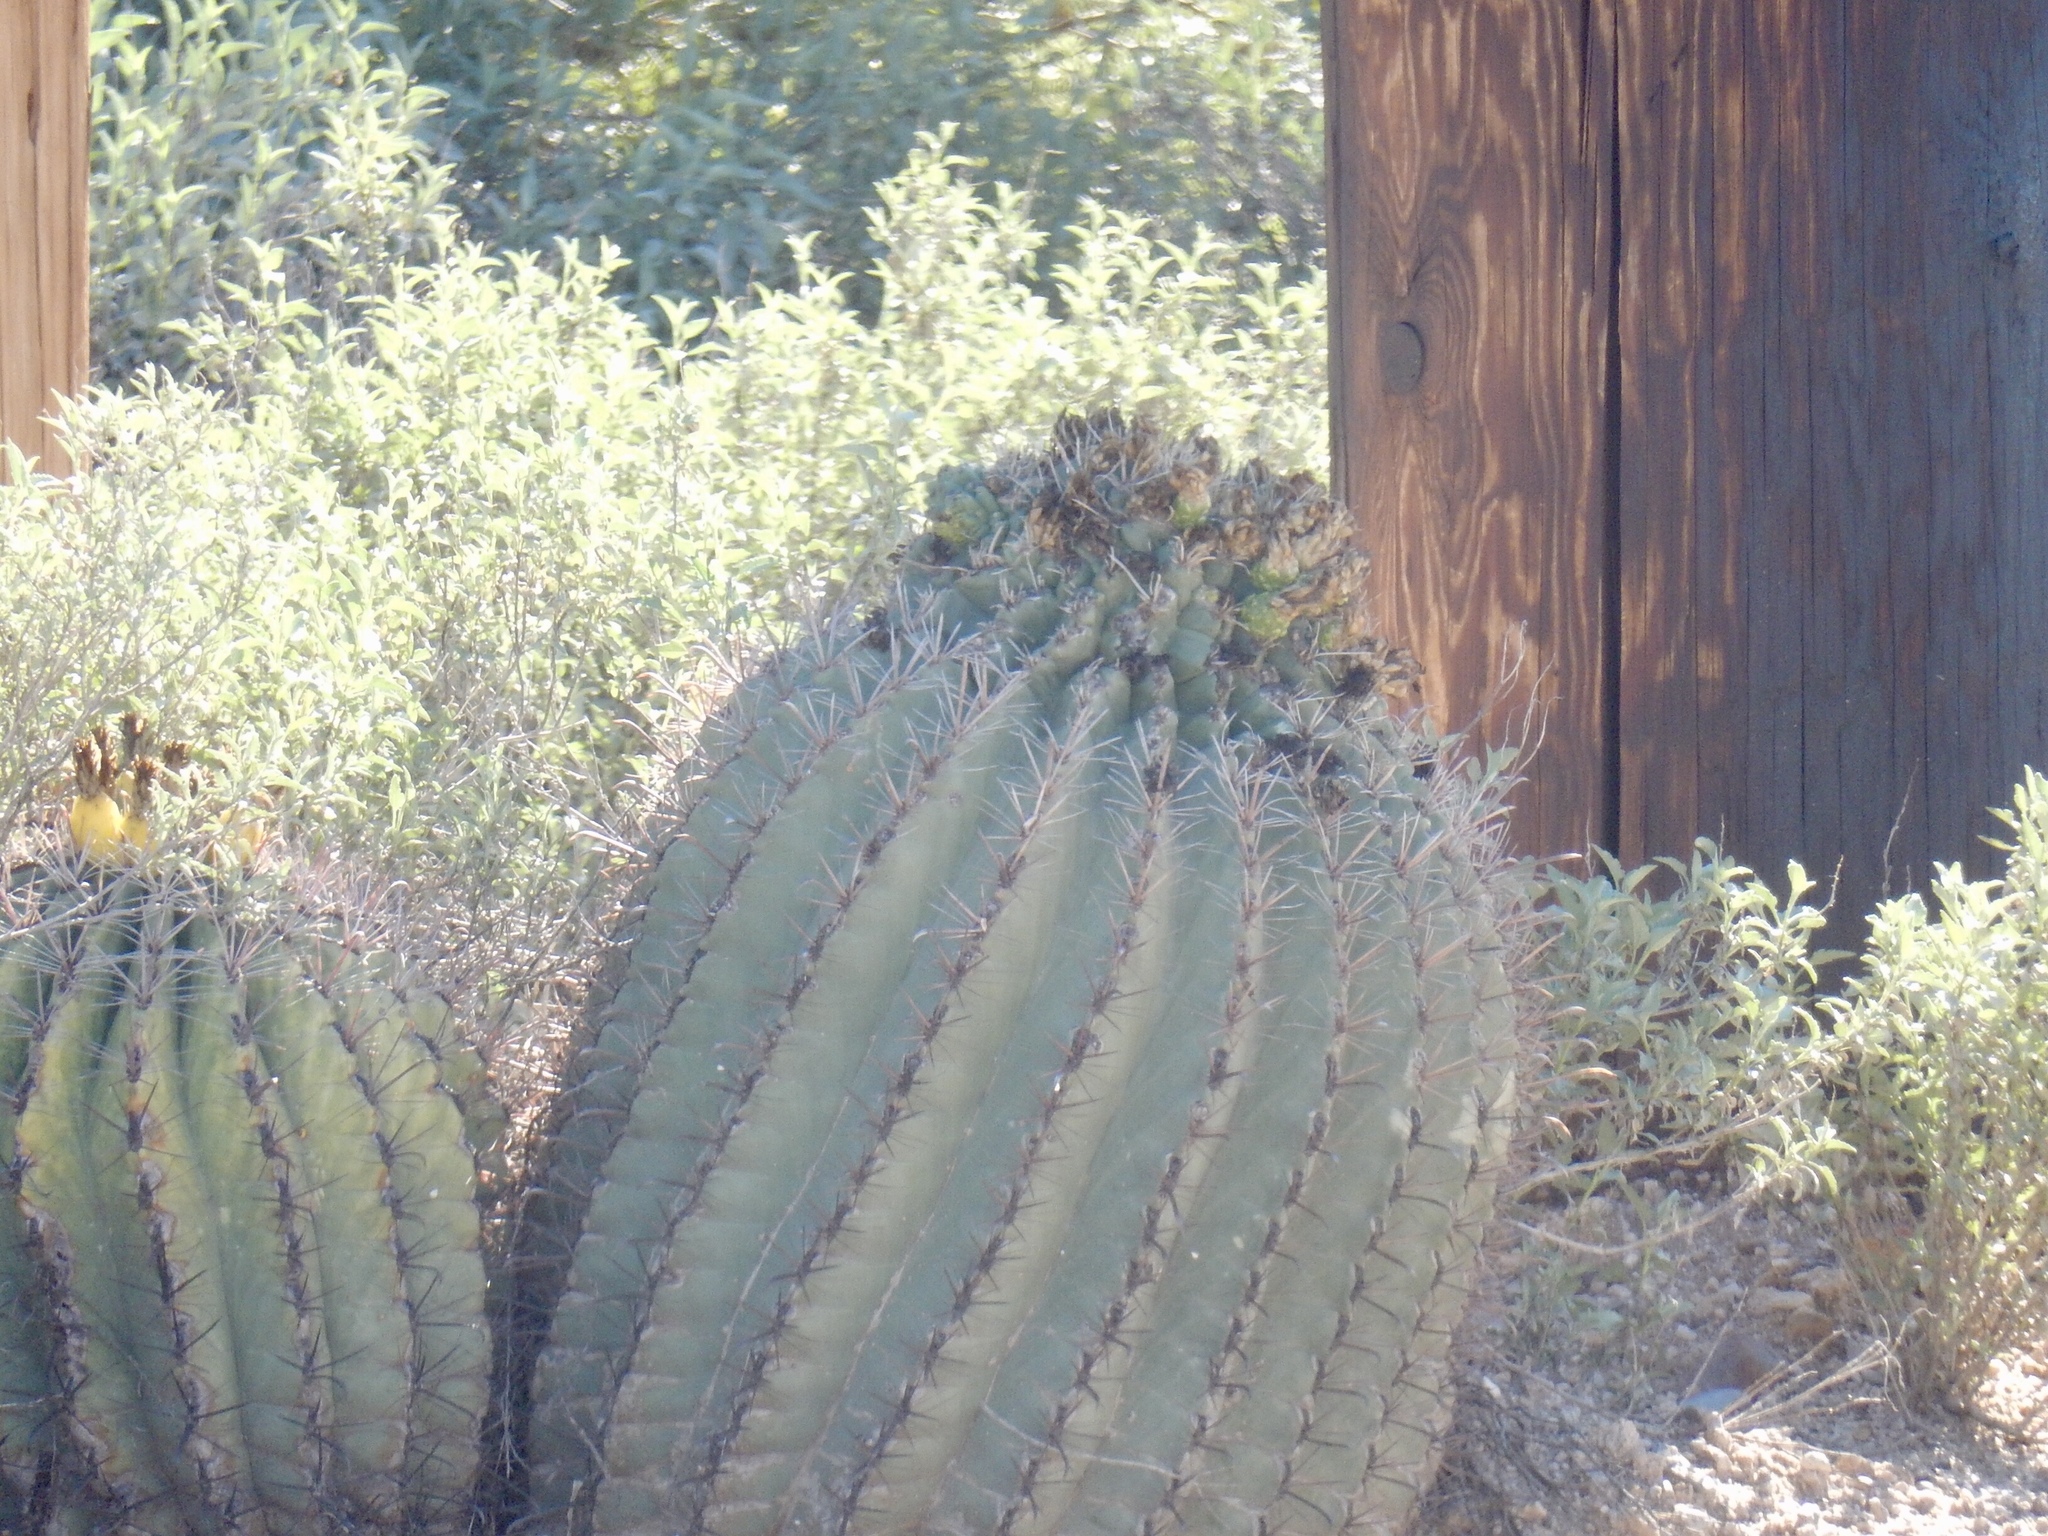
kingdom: Plantae
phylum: Tracheophyta
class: Magnoliopsida
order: Caryophyllales
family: Cactaceae
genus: Ferocactus
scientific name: Ferocactus wislizeni
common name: Candy barrel cactus
